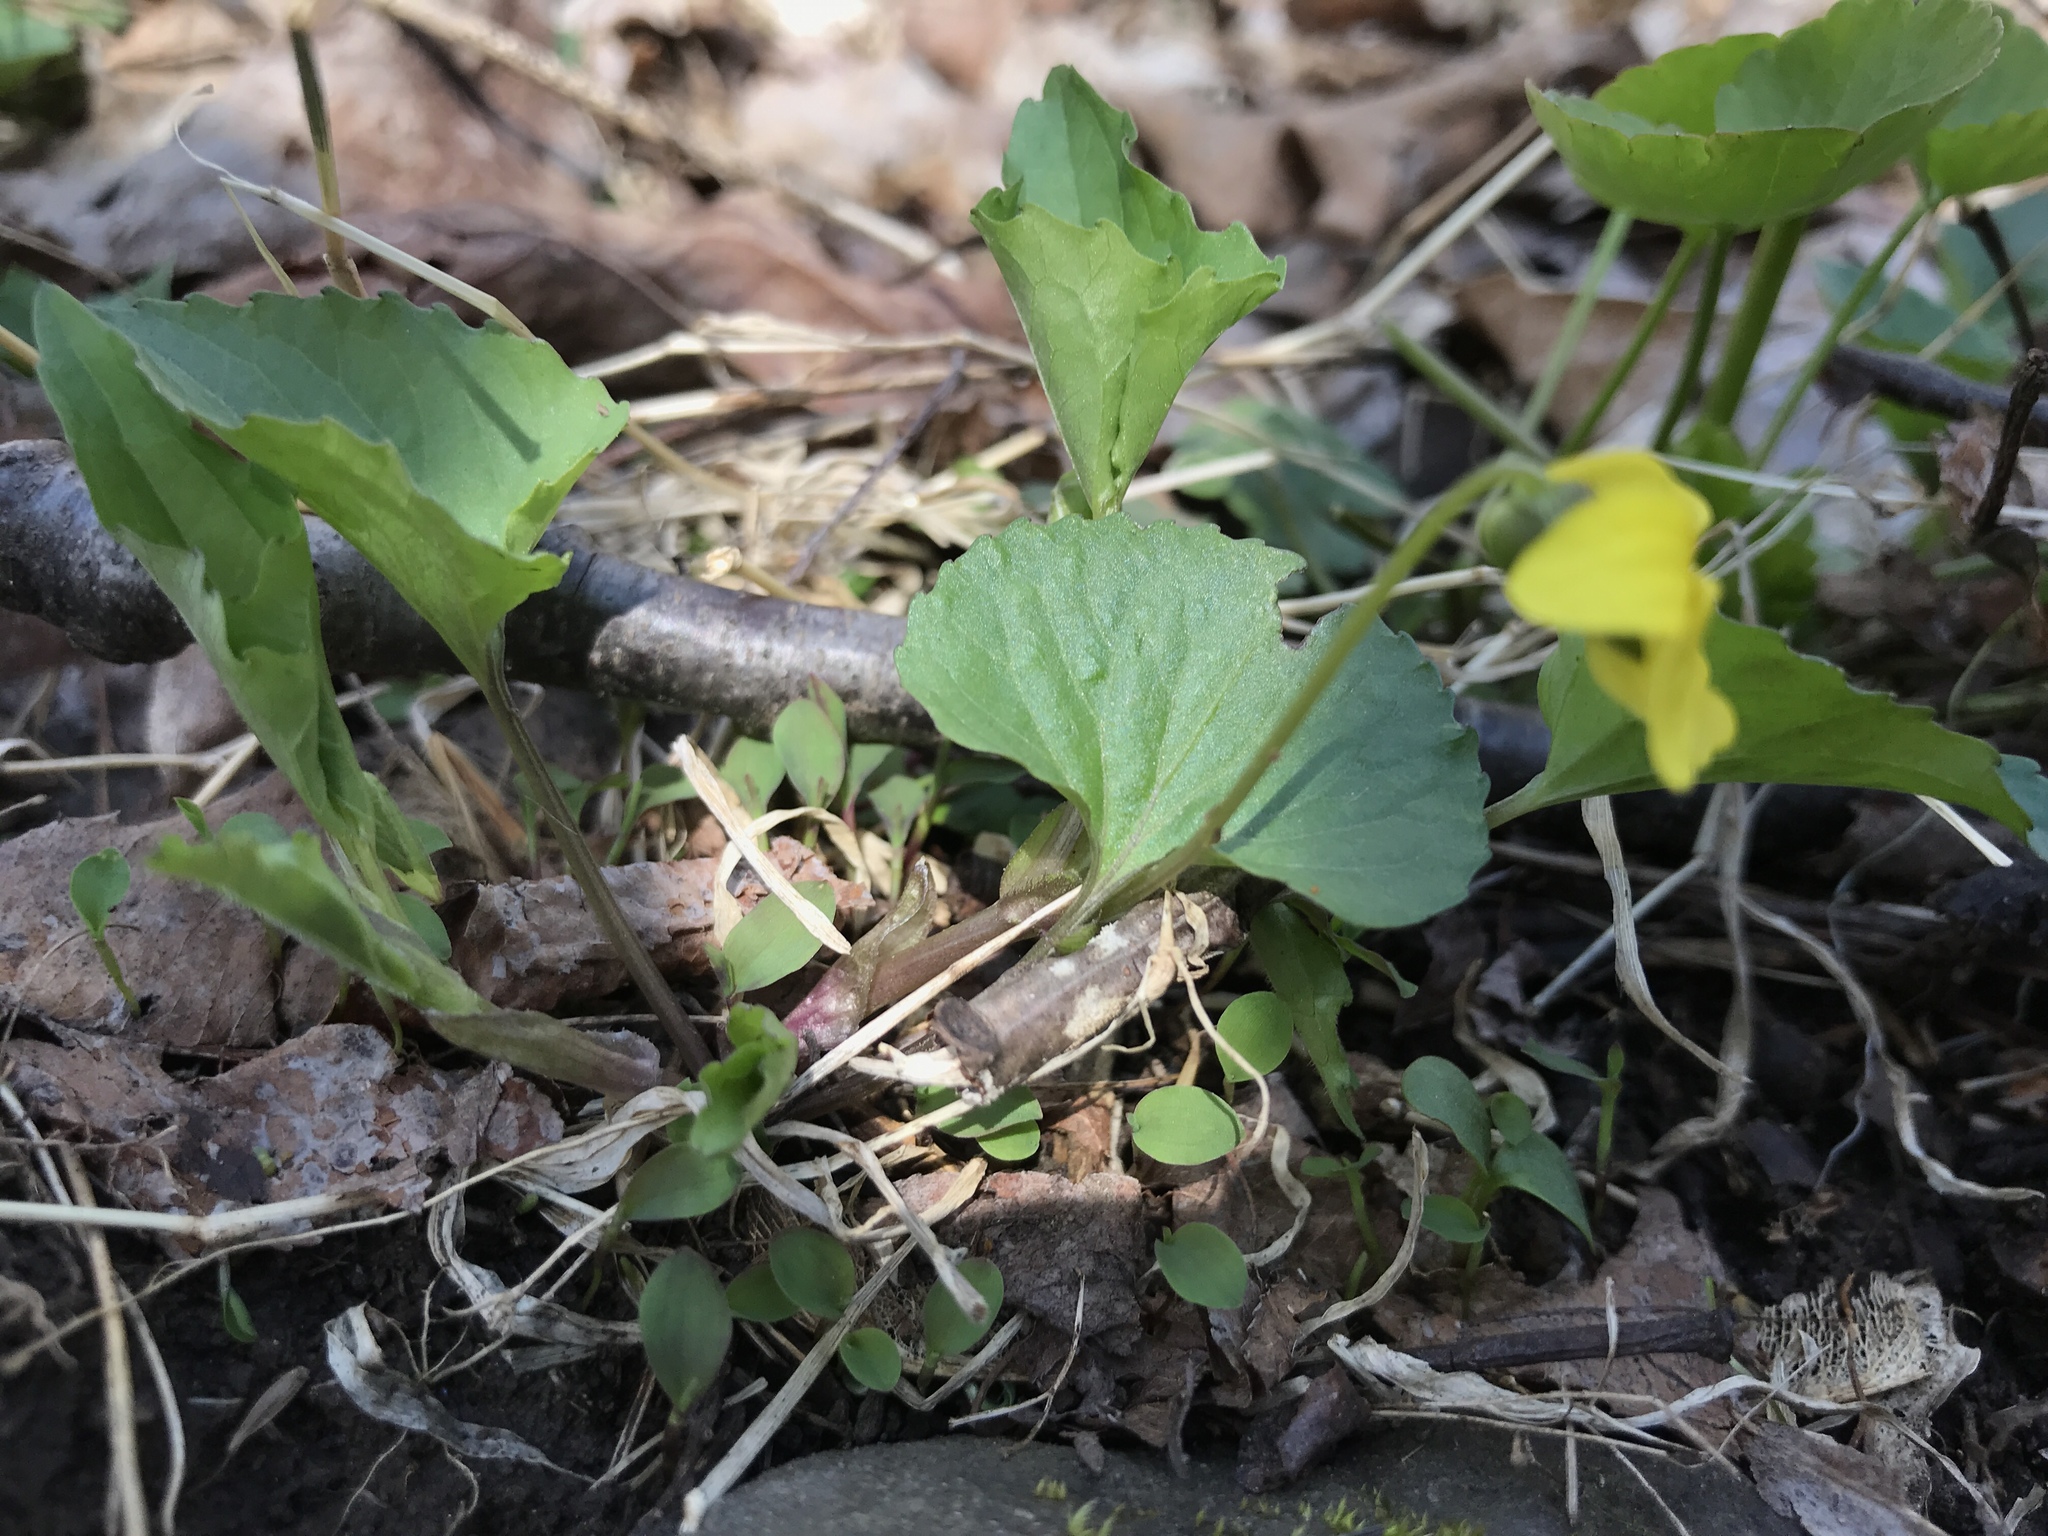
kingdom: Plantae
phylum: Tracheophyta
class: Magnoliopsida
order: Malpighiales
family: Violaceae
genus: Viola
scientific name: Viola eriocarpa
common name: Smooth yellow violet
